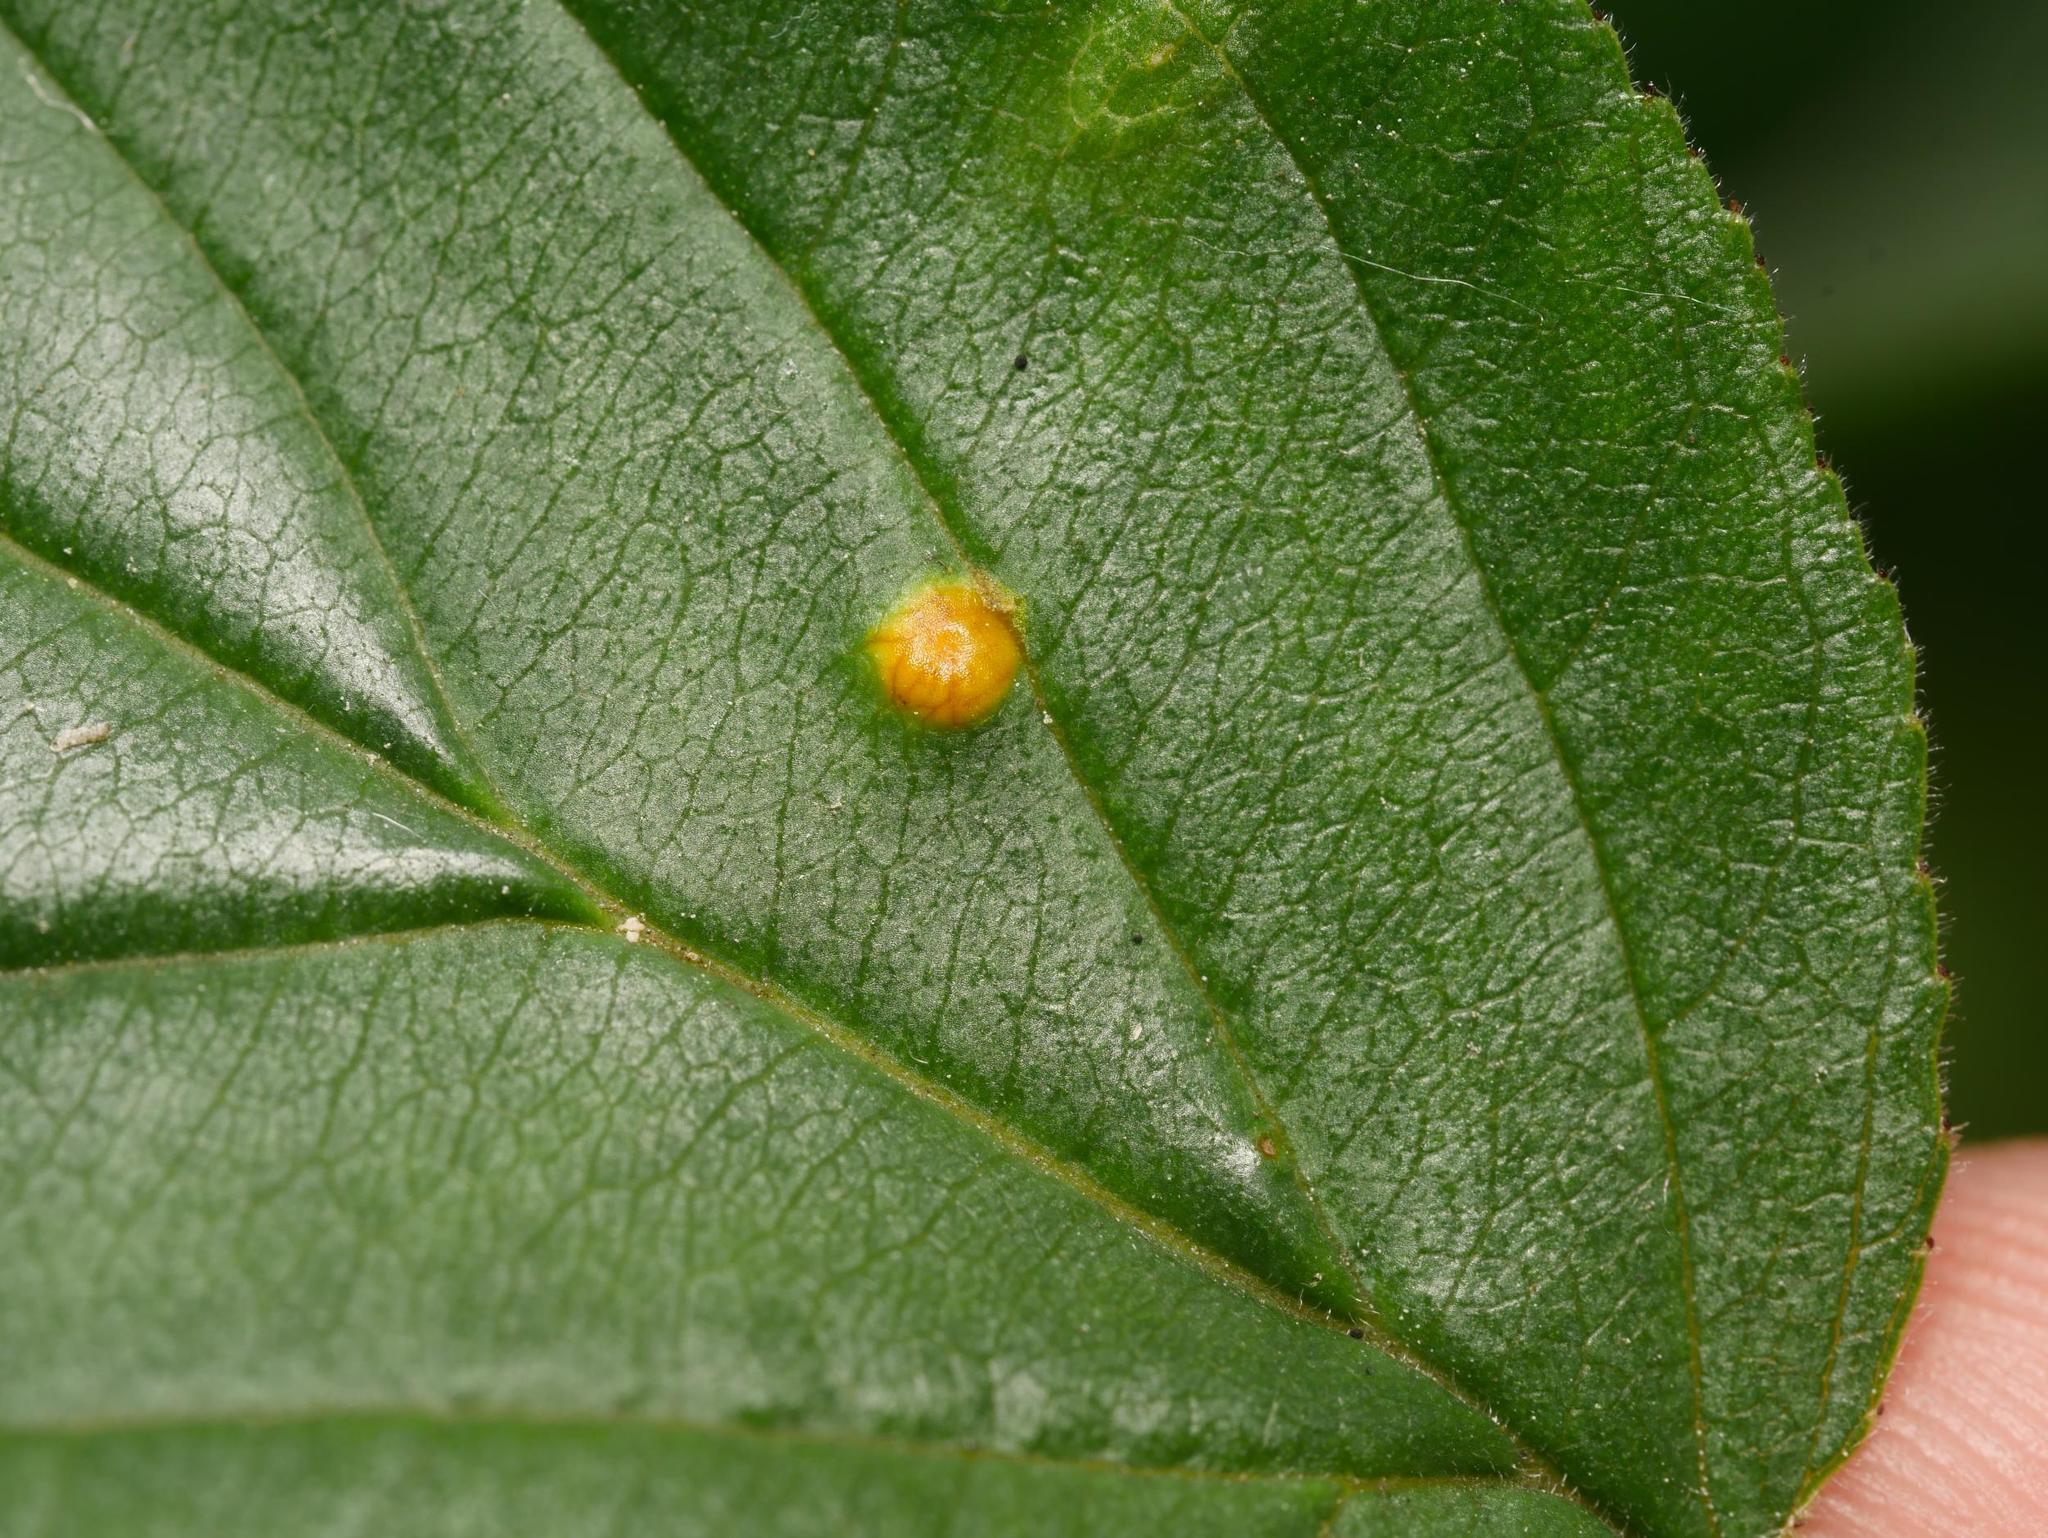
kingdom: Fungi
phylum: Basidiomycota
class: Pucciniomycetes
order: Pucciniales
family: Pucciniaceae
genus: Puccinia
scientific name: Puccinia coronata
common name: Crown rust
